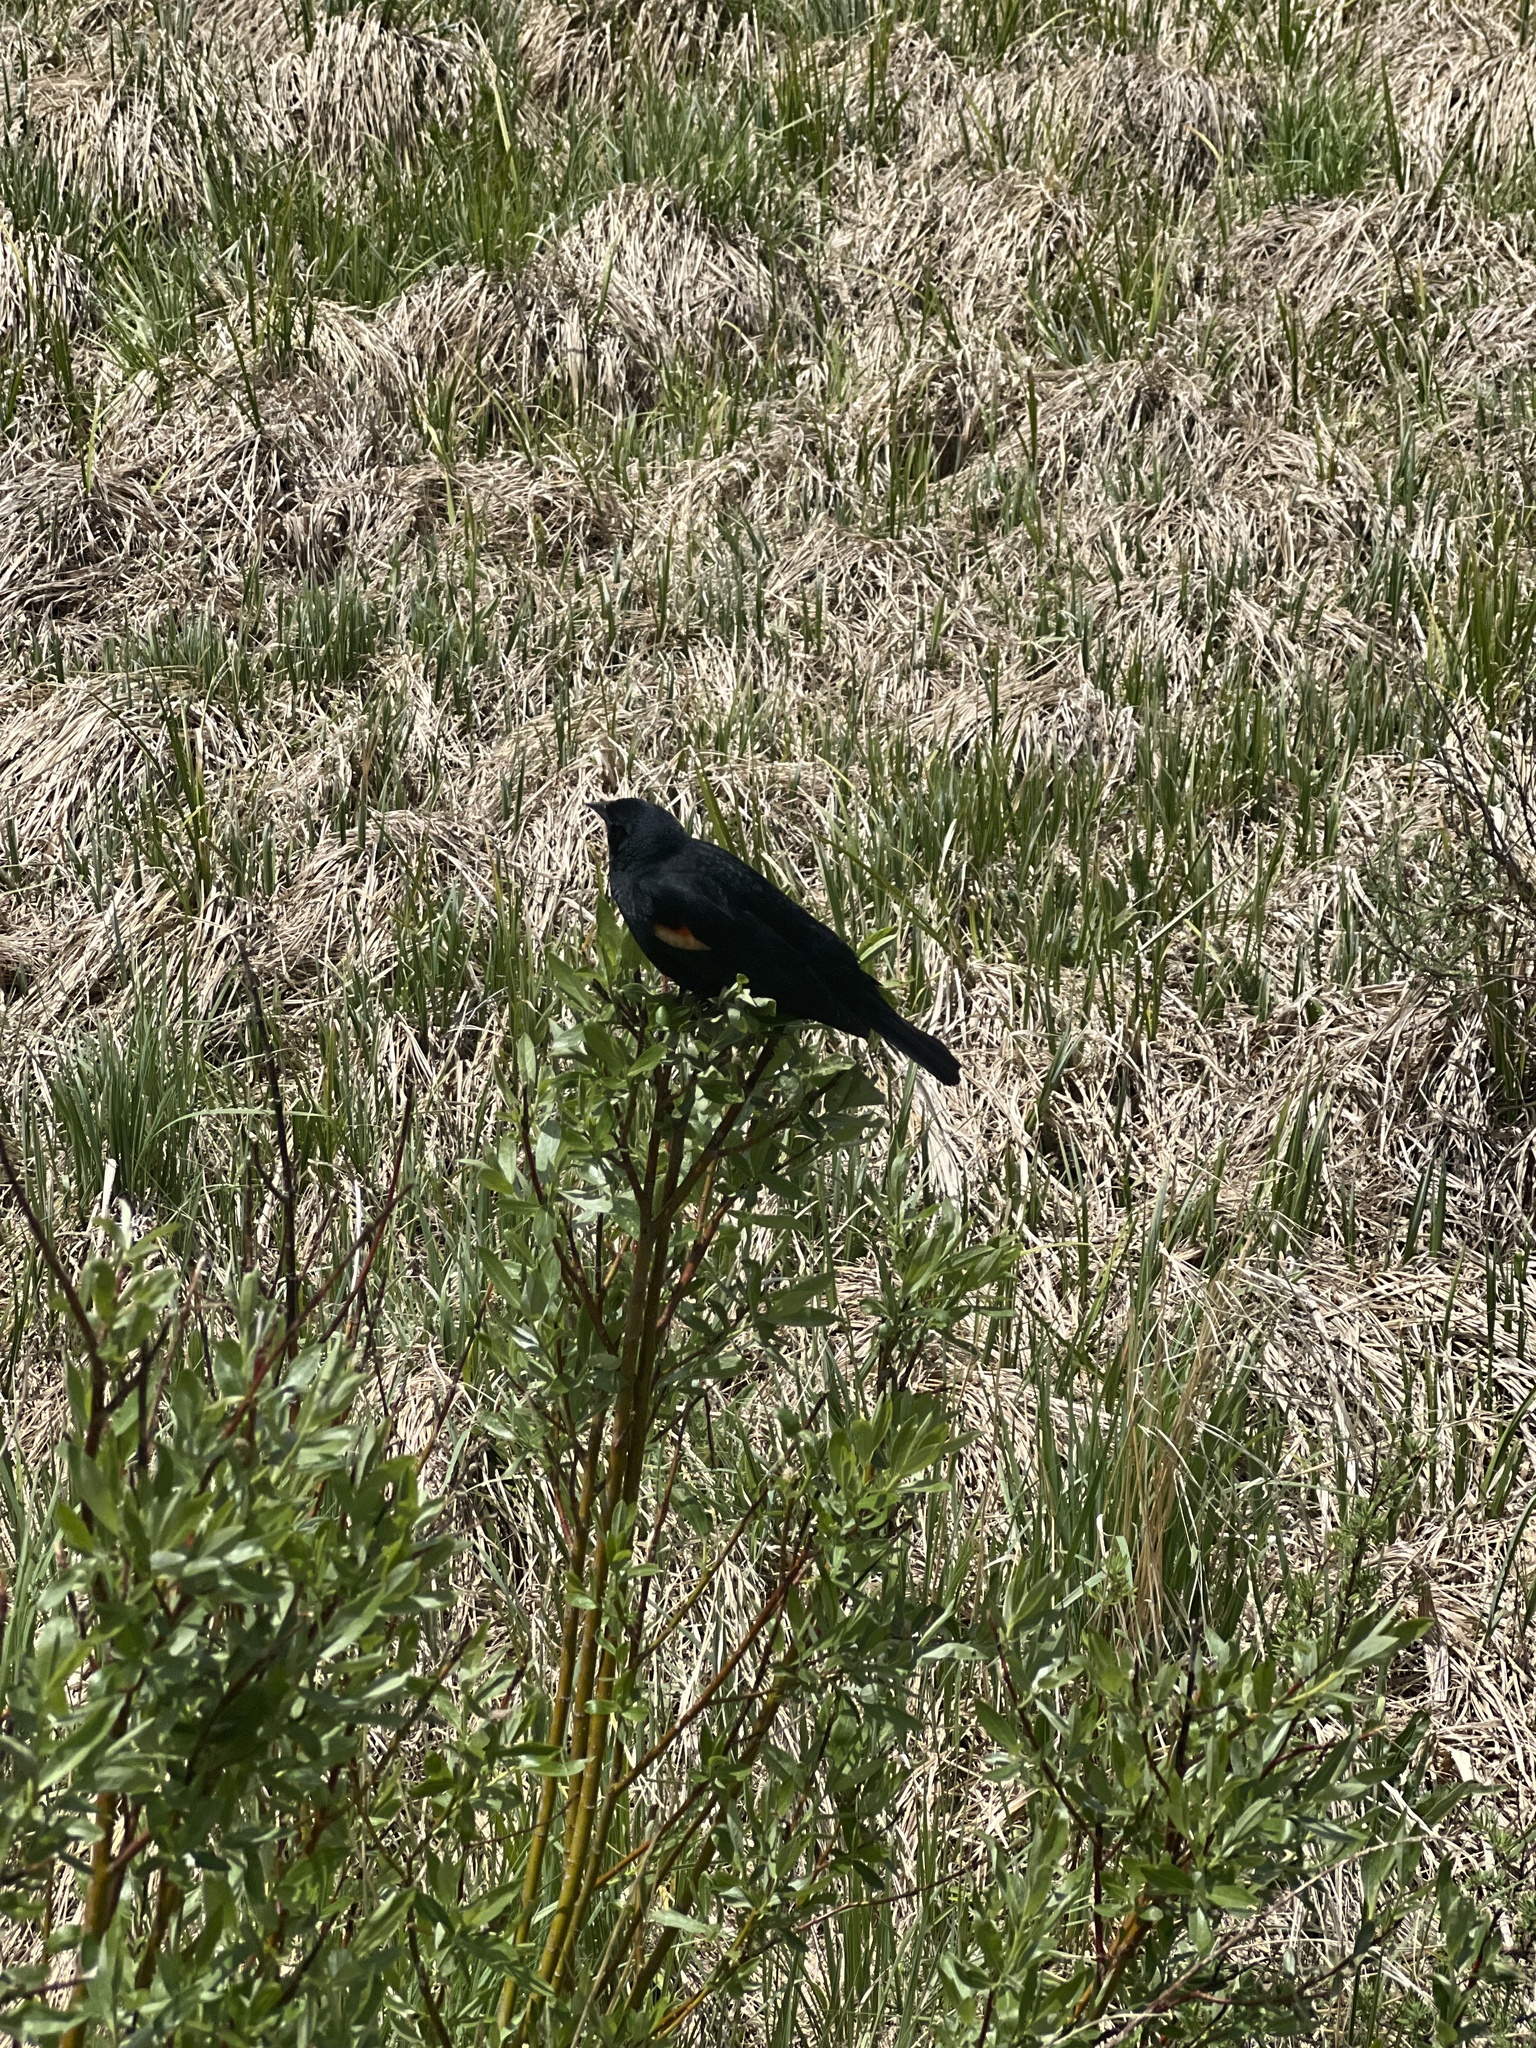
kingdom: Animalia
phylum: Chordata
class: Aves
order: Passeriformes
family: Icteridae
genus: Agelaius
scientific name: Agelaius phoeniceus
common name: Red-winged blackbird
